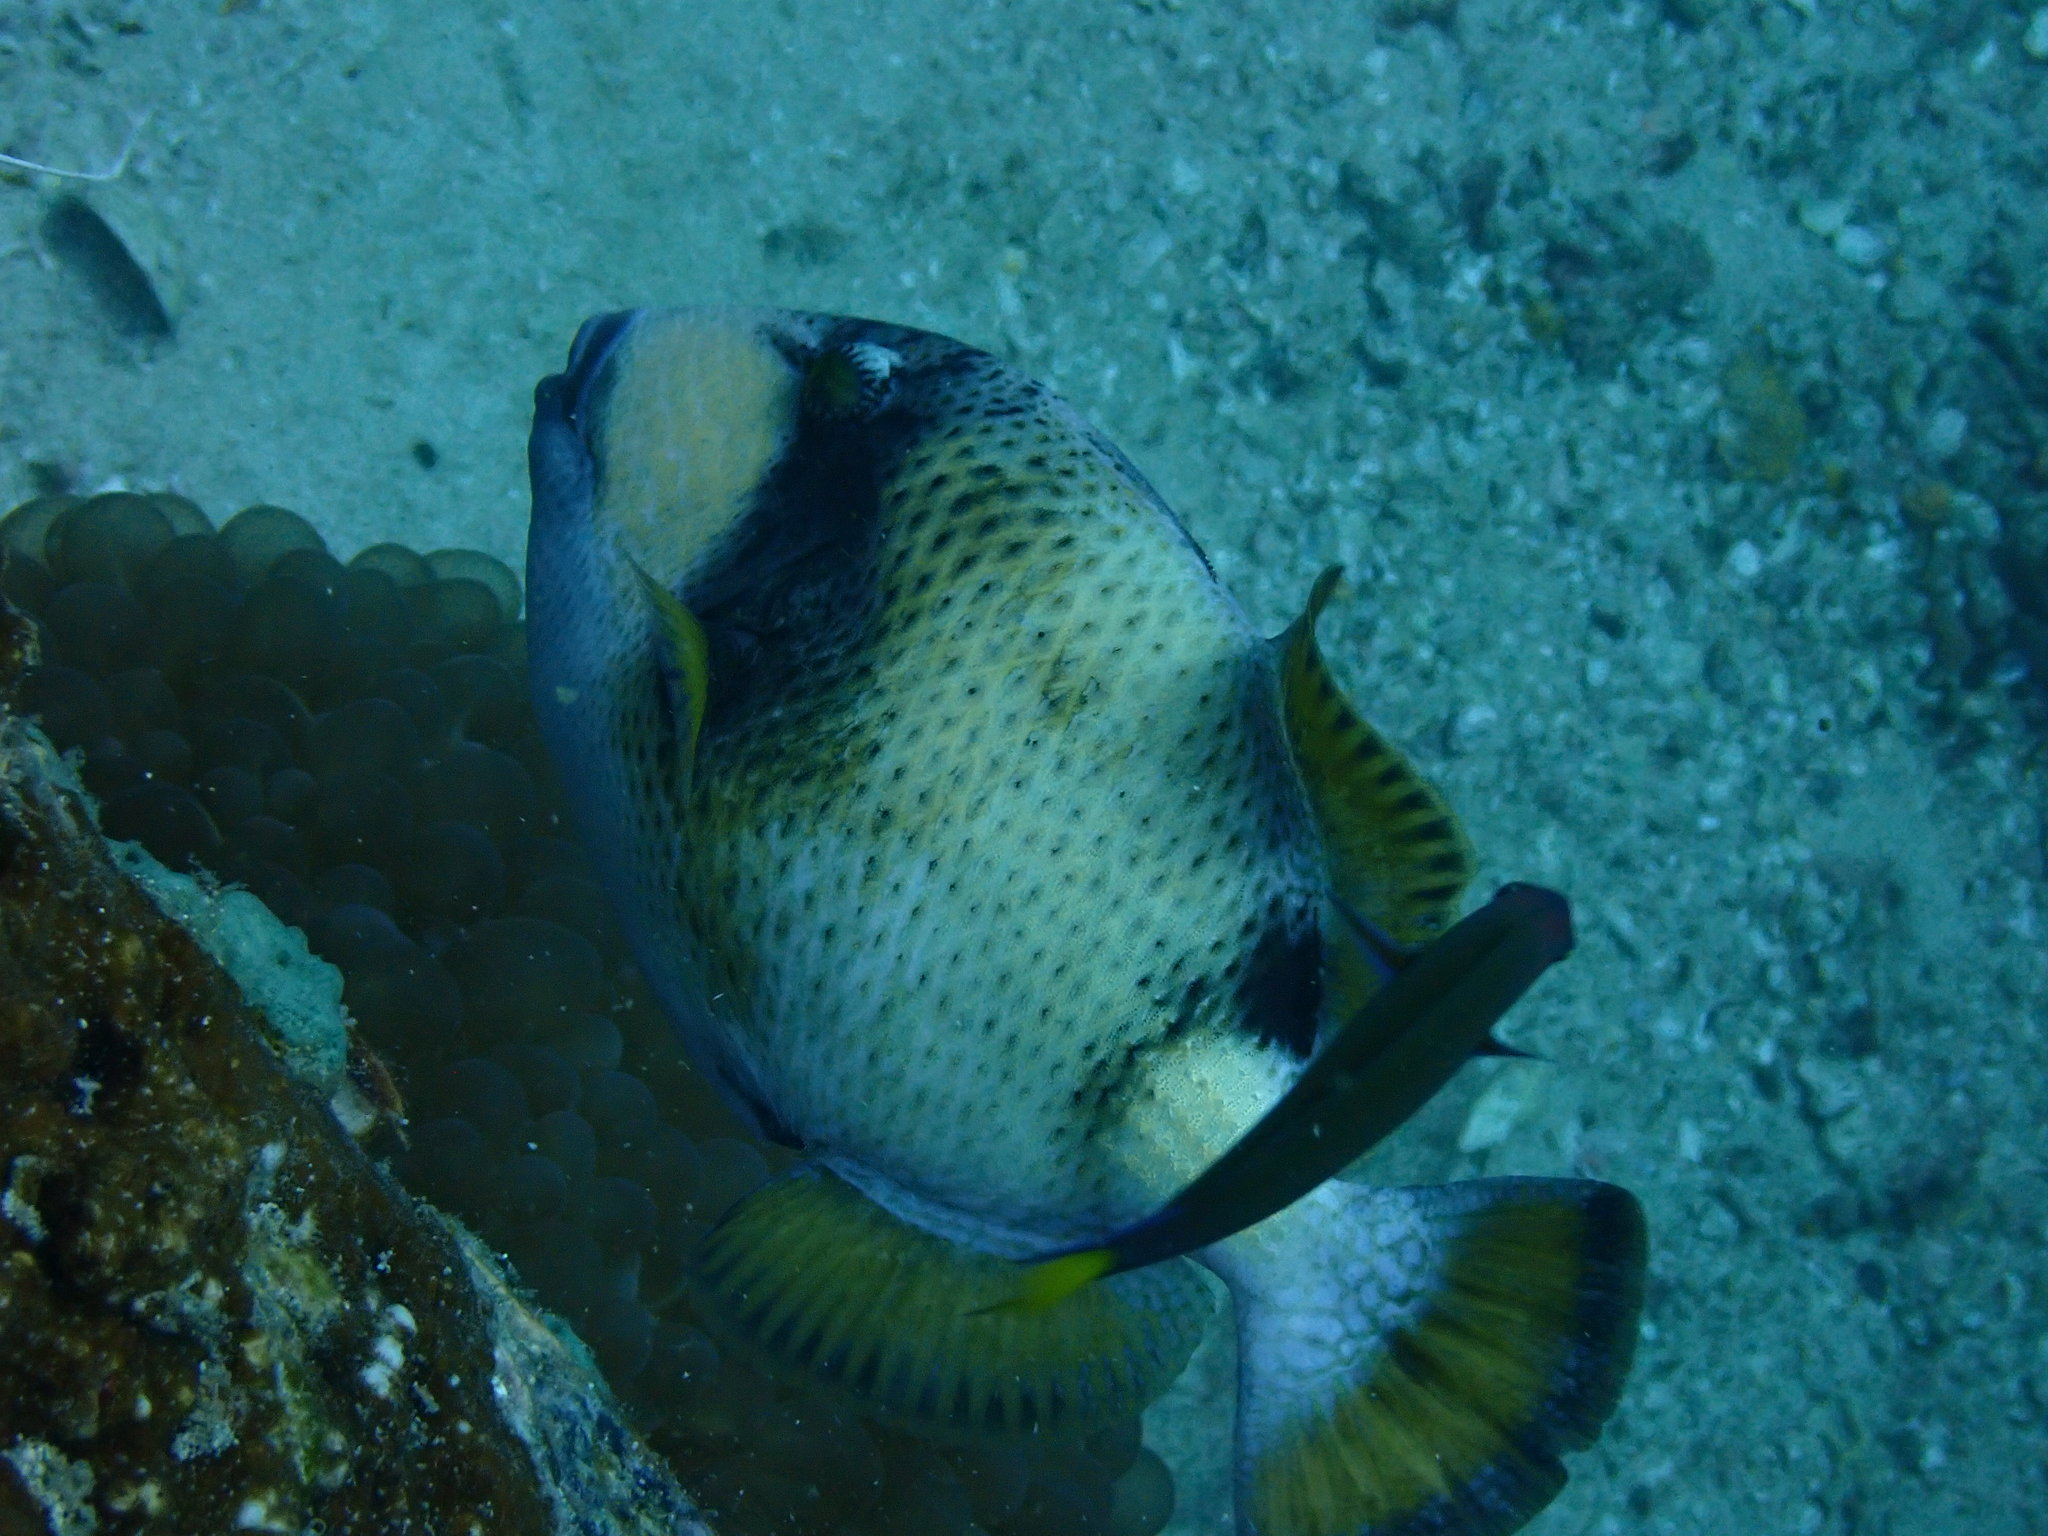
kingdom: Animalia
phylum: Chordata
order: Tetraodontiformes
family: Balistidae
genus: Balistoides
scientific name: Balistoides viridescens
